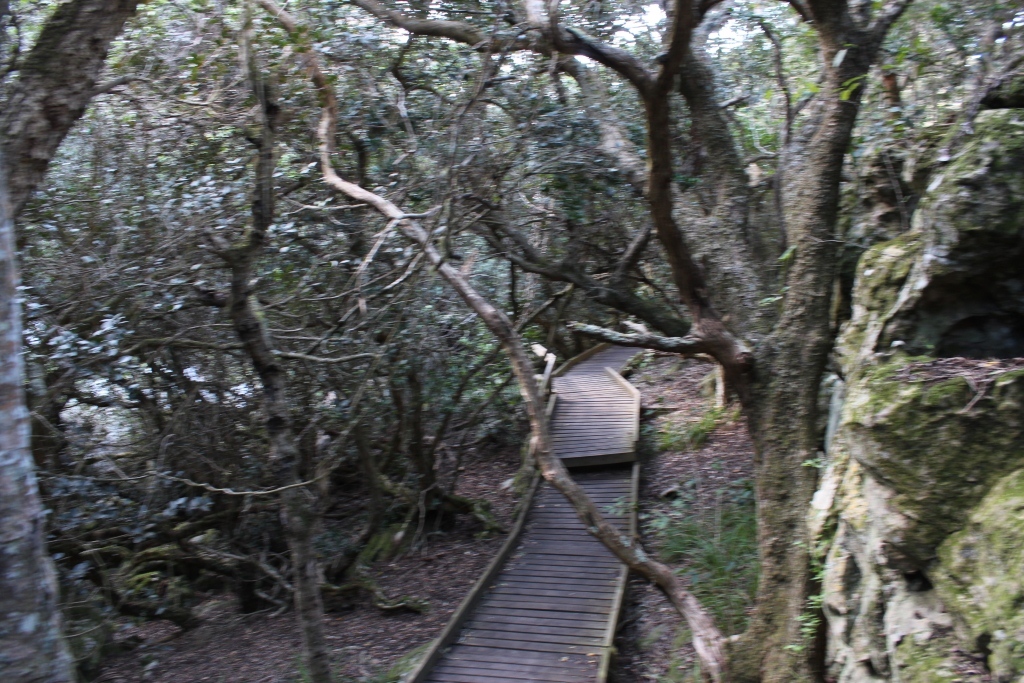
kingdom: Plantae
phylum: Tracheophyta
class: Magnoliopsida
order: Celastrales
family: Celastraceae
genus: Maurocenia
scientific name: Maurocenia frangula
